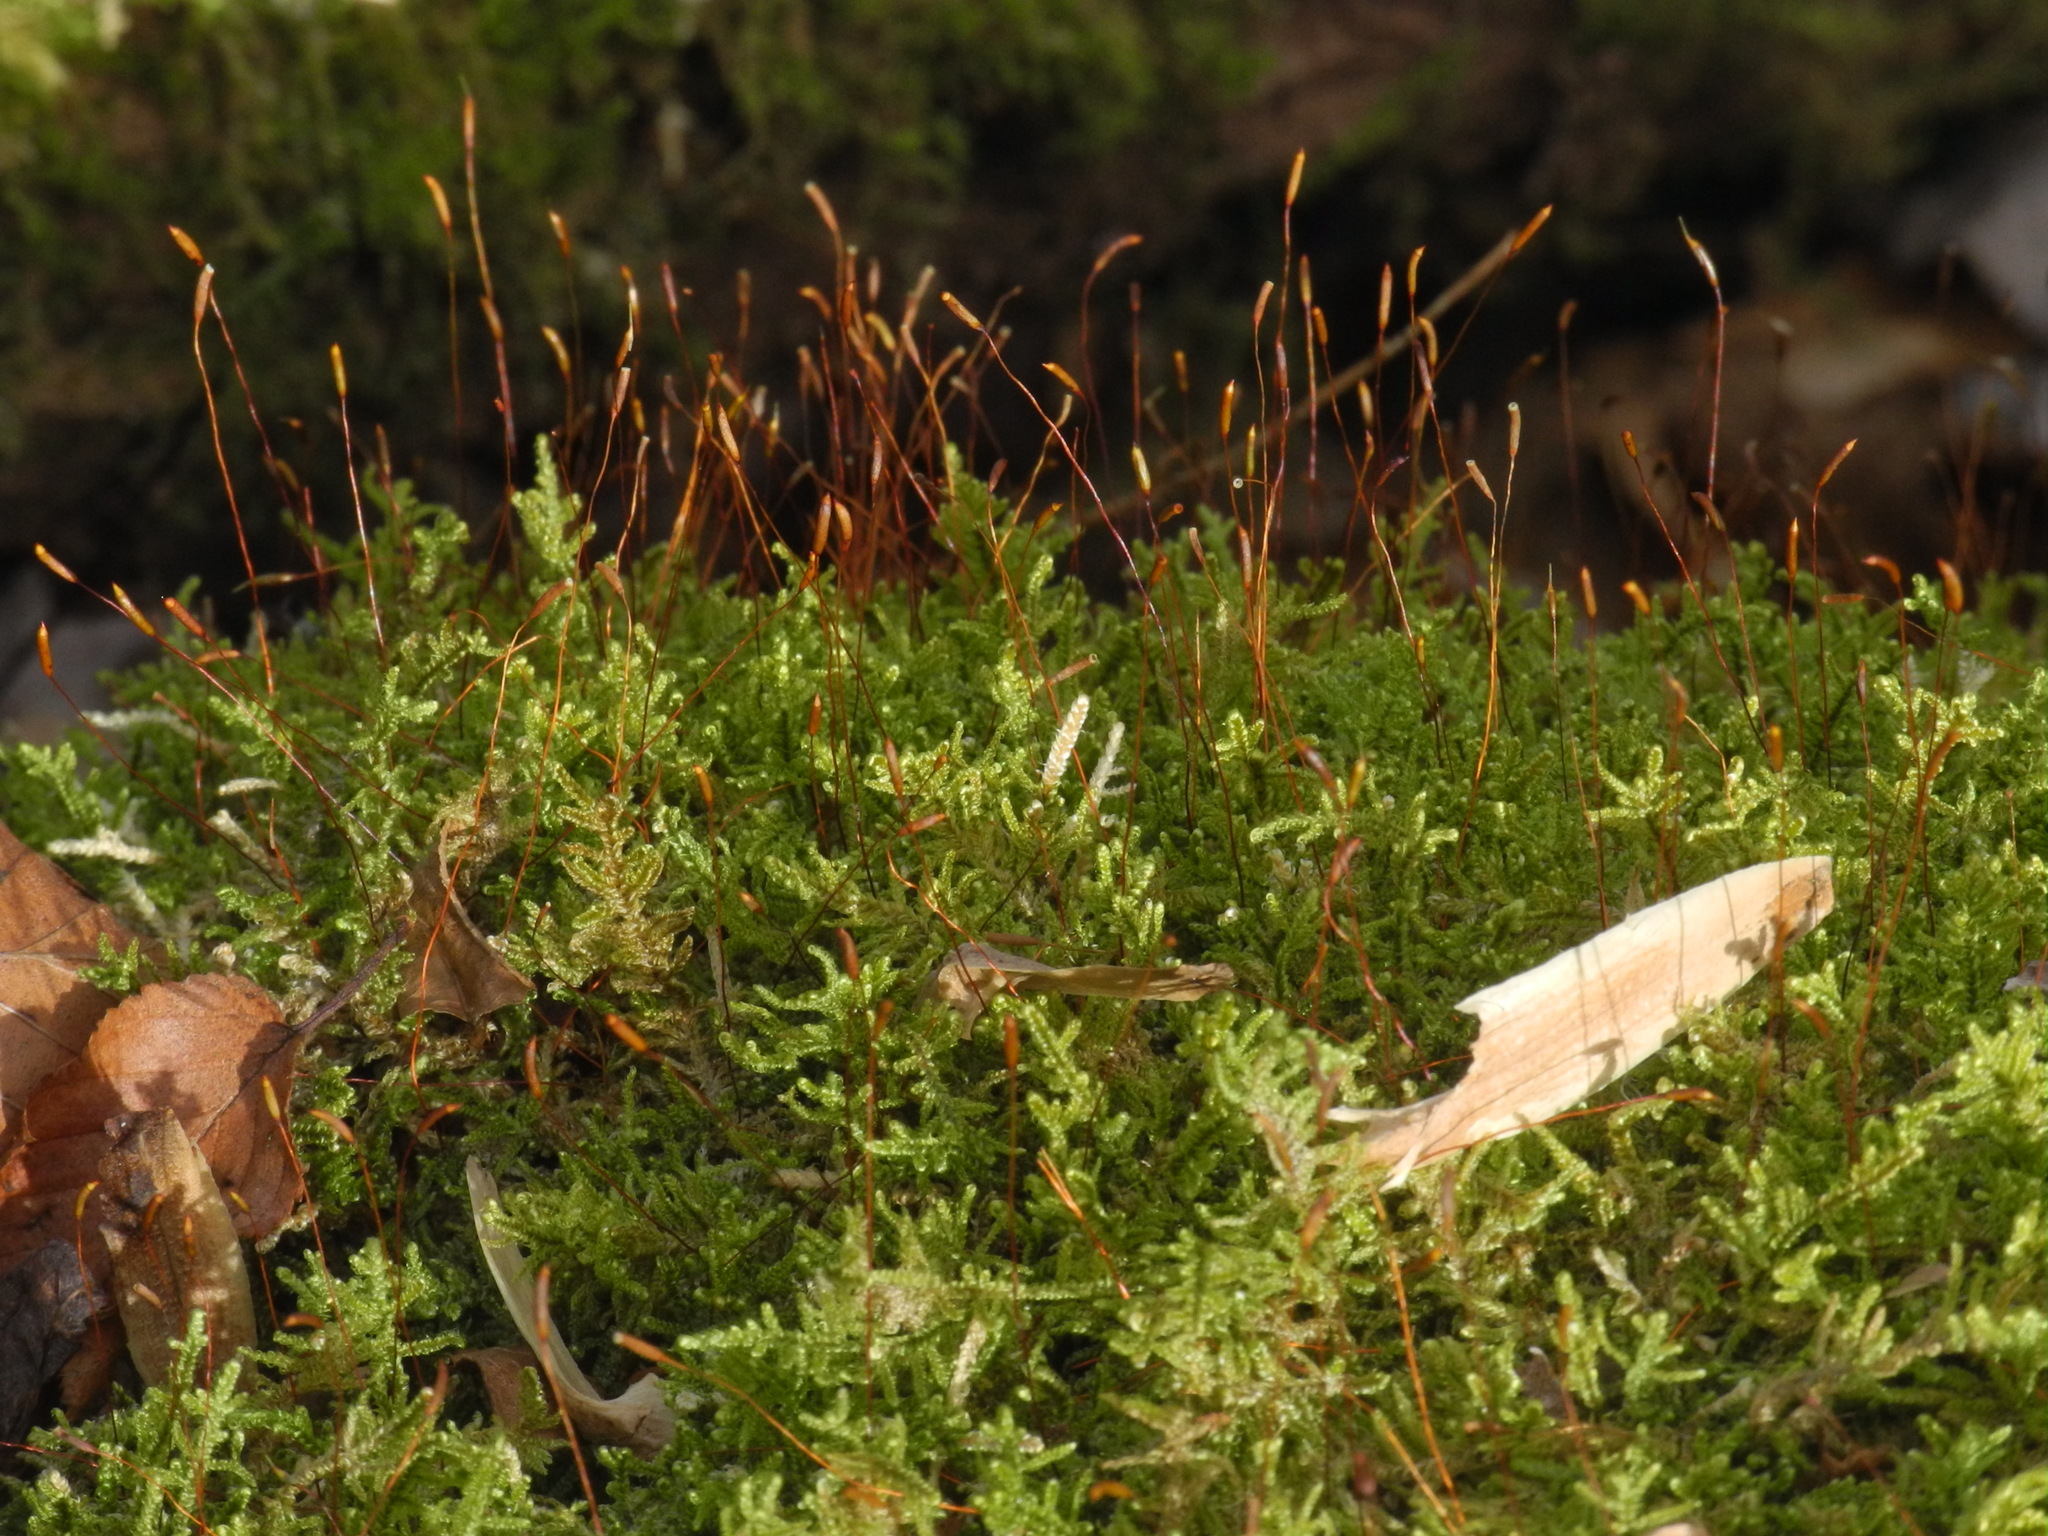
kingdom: Plantae
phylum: Bryophyta
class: Bryopsida
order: Hypnales
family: Callicladiaceae
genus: Callicladium
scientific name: Callicladium imponens
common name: Brocade moss
